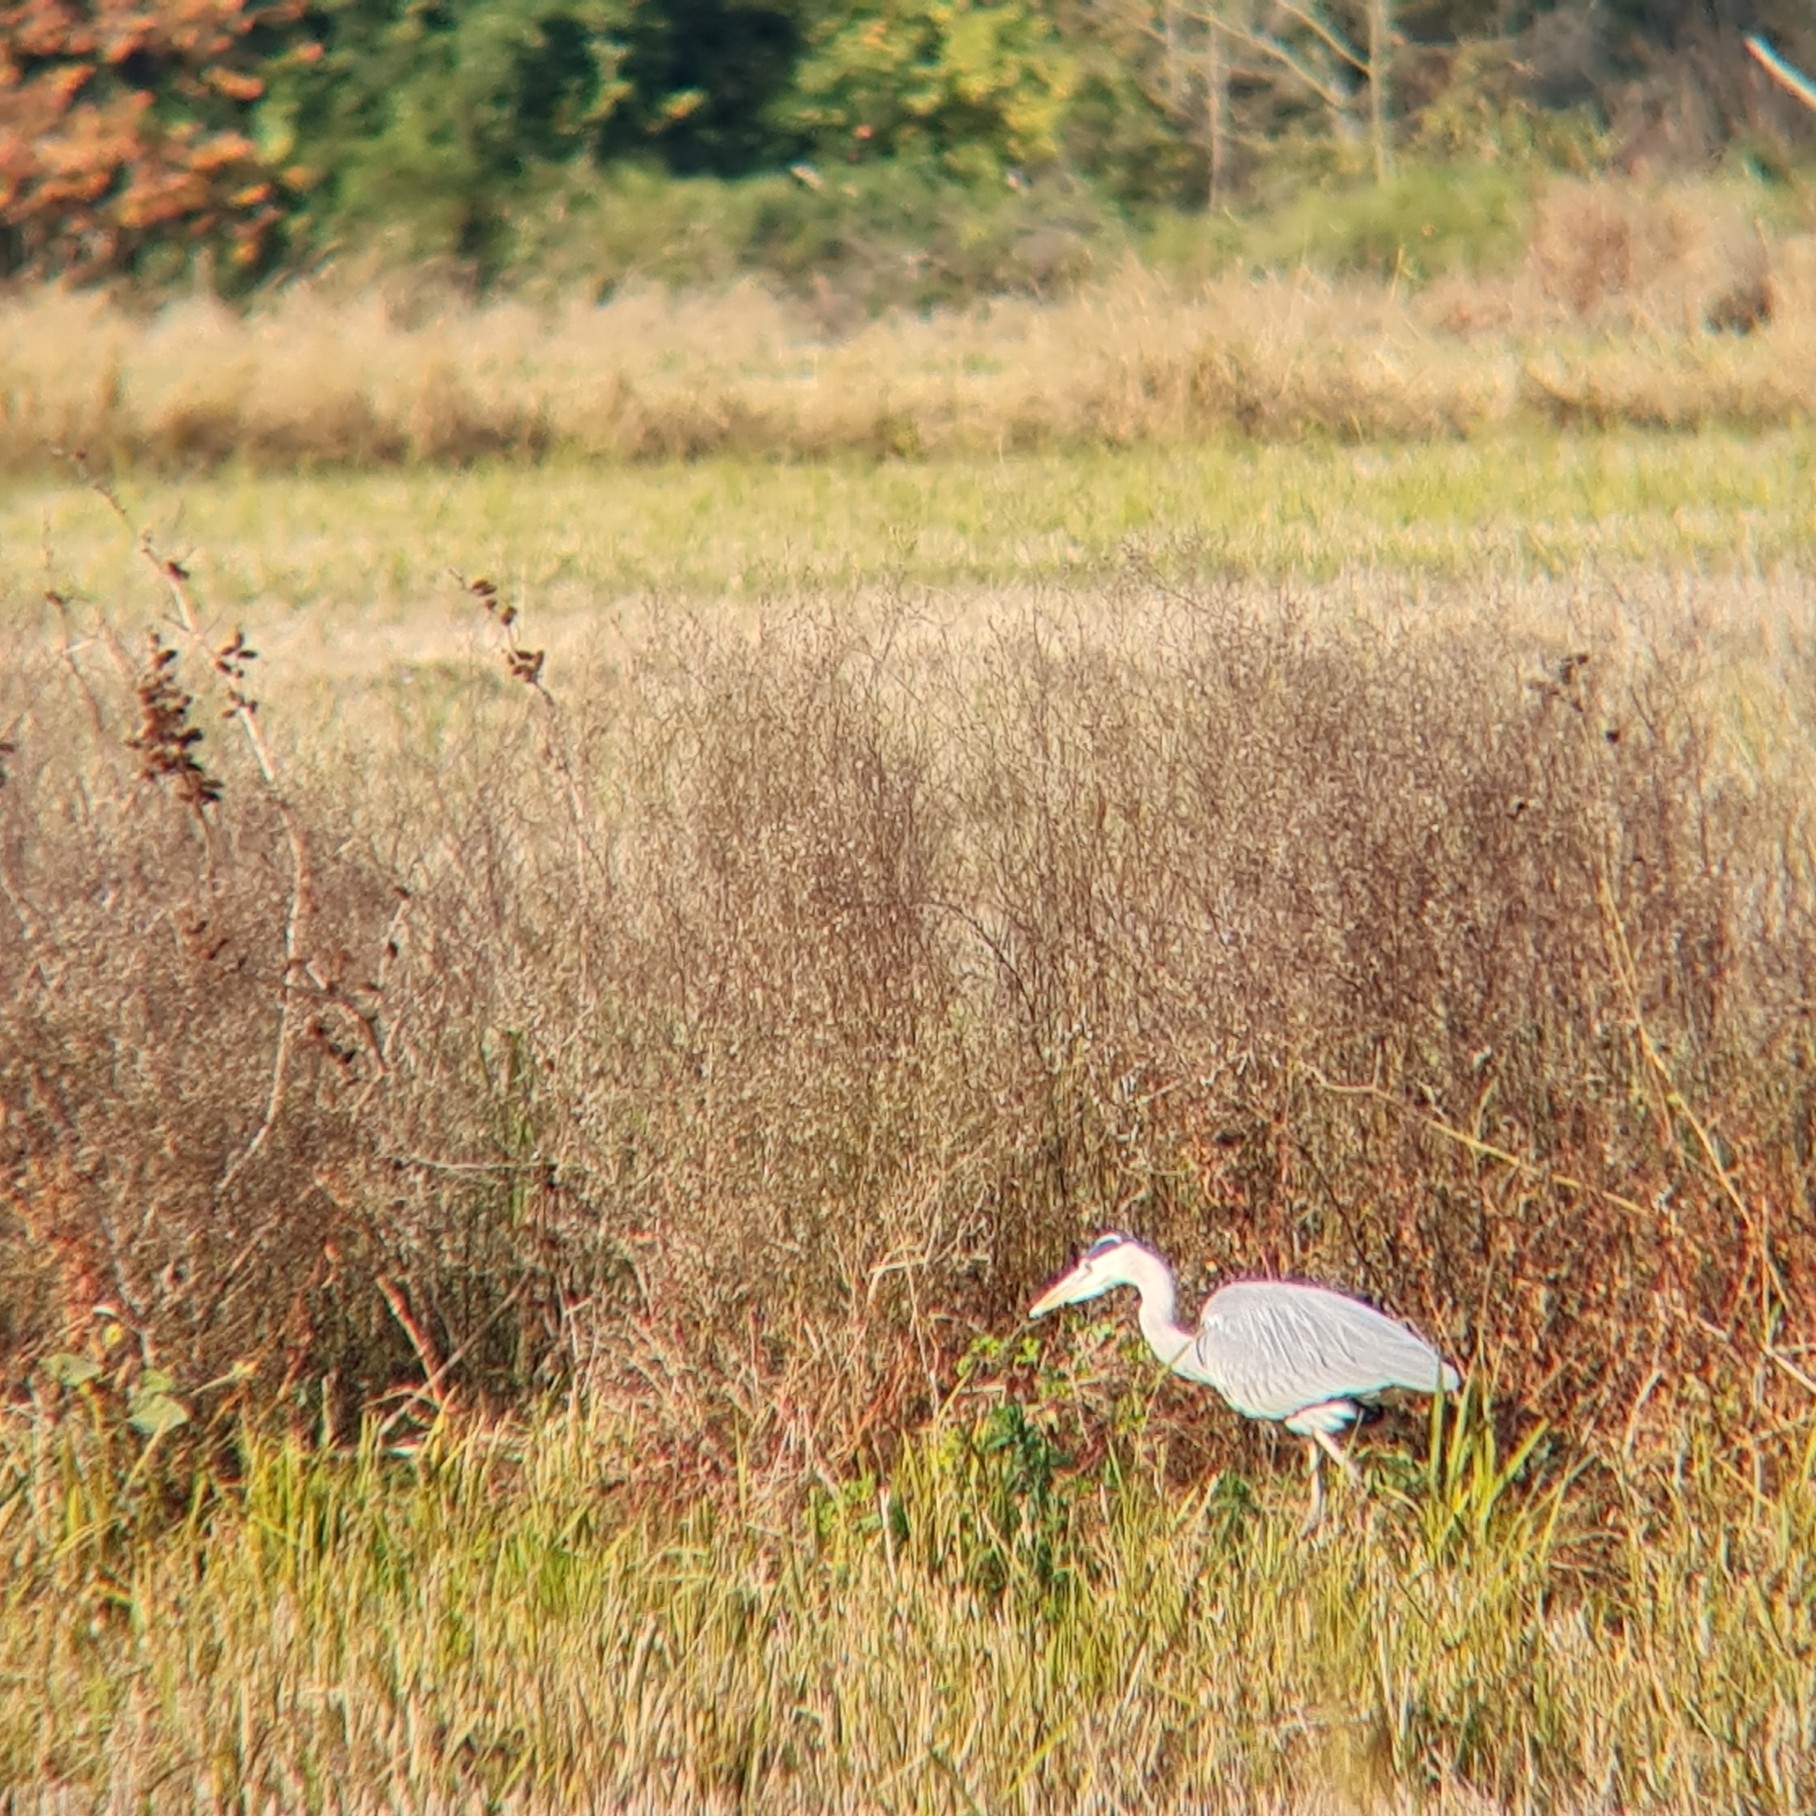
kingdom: Animalia
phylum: Chordata
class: Aves
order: Pelecaniformes
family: Ardeidae
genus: Ardea
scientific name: Ardea cinerea
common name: Grey heron
